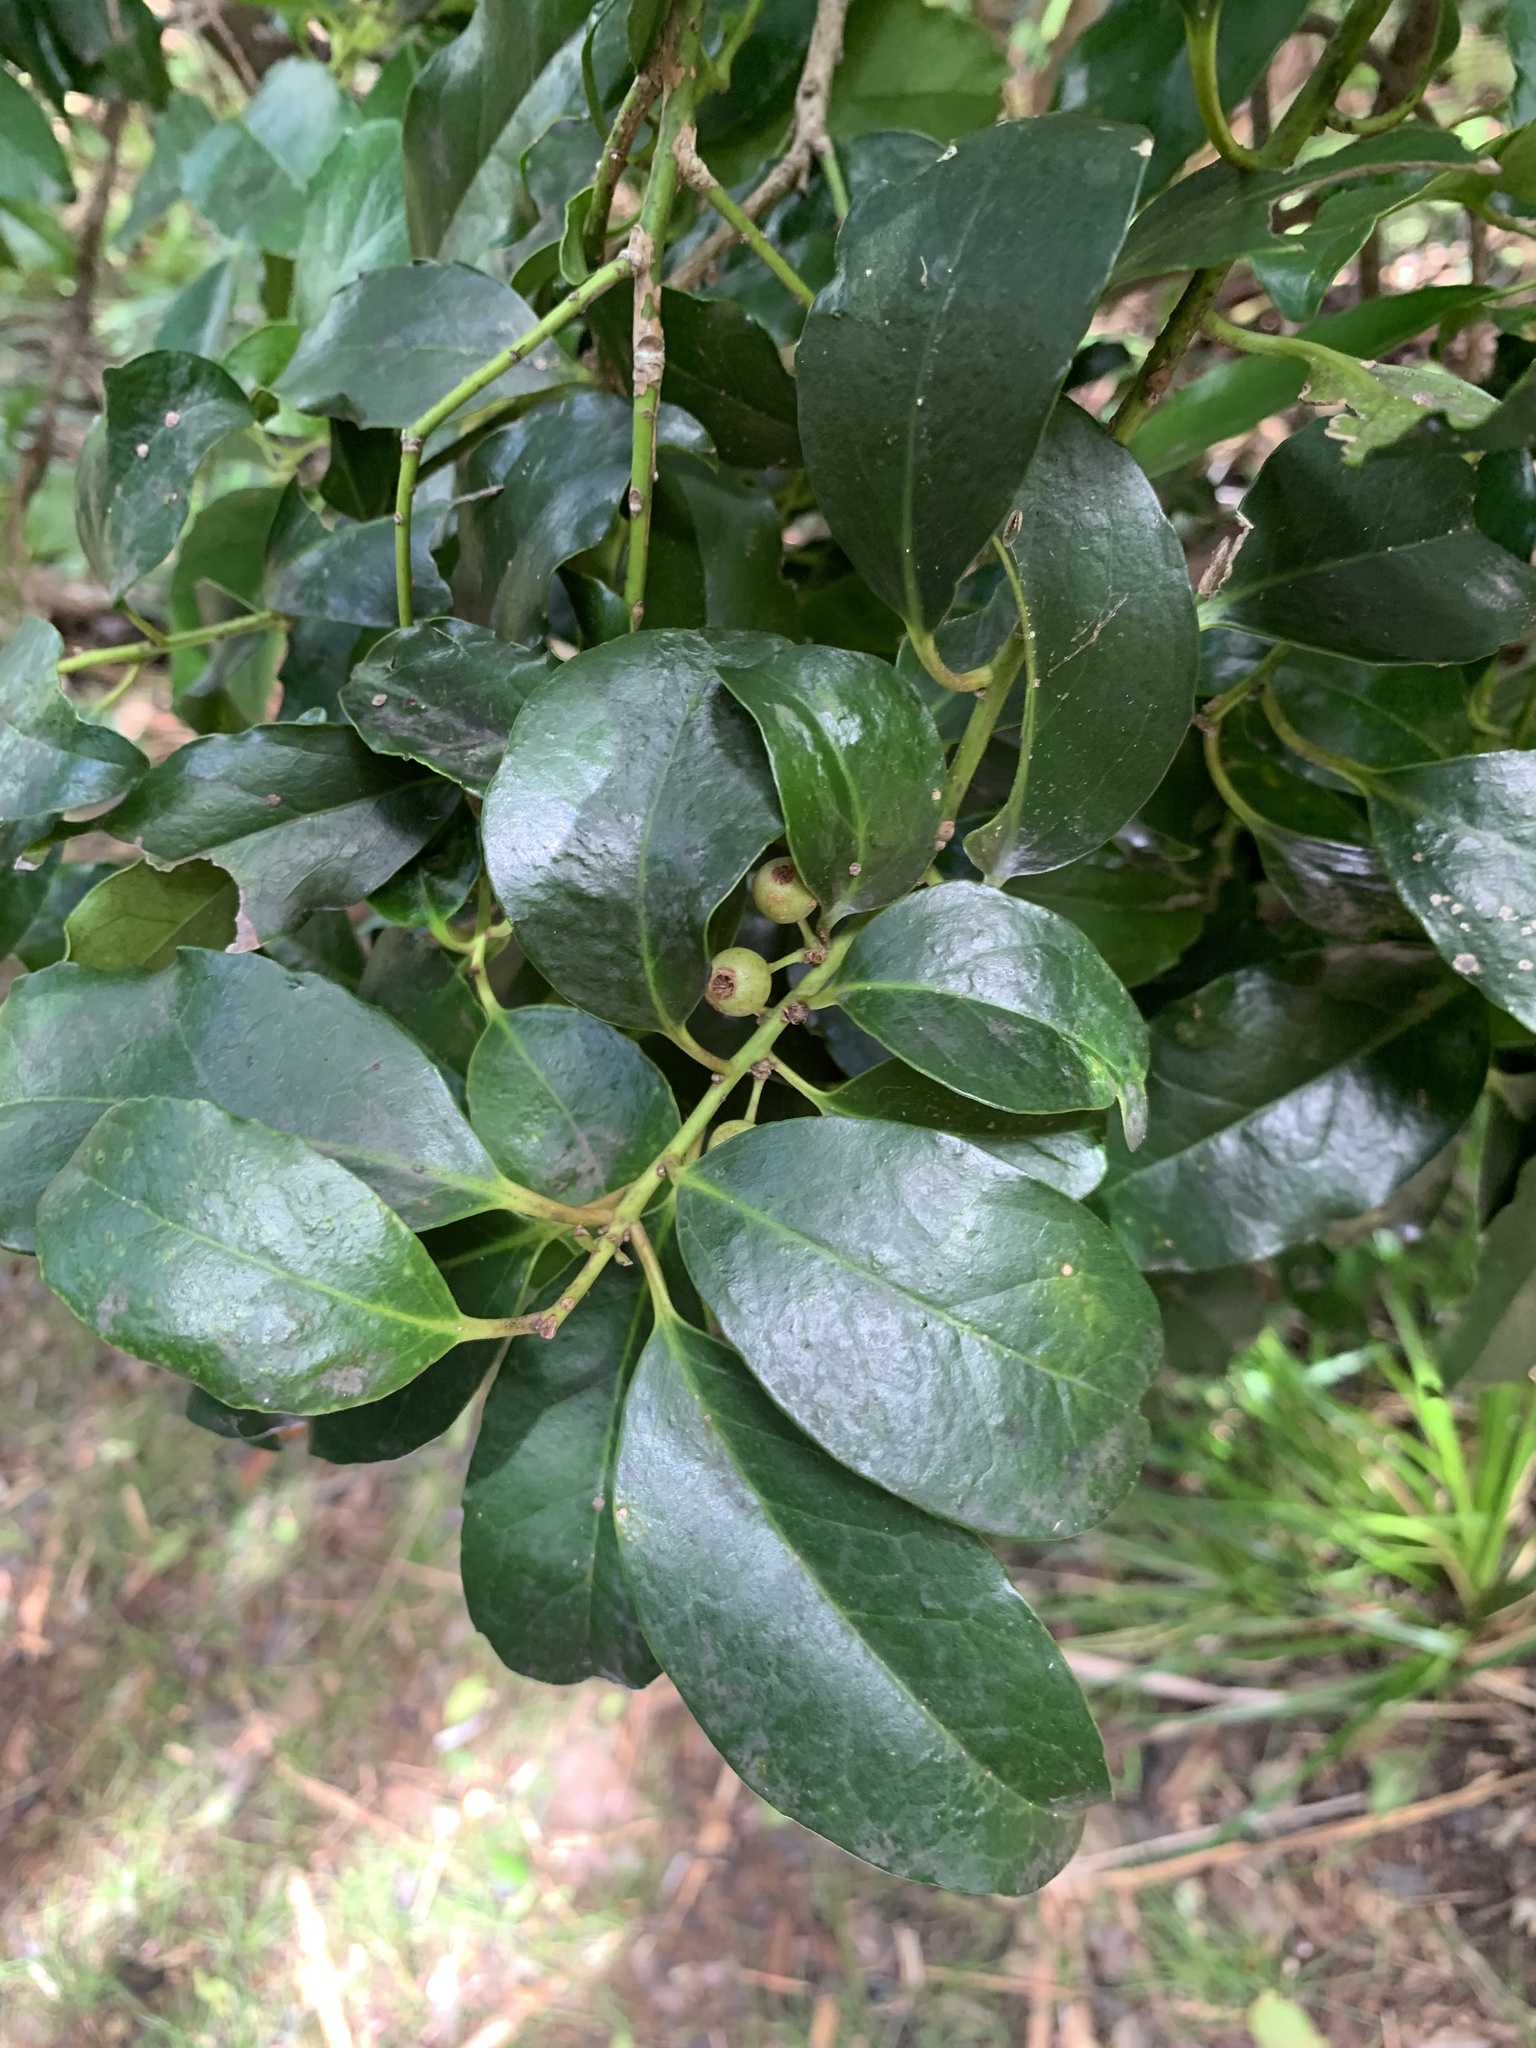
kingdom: Plantae
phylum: Tracheophyta
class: Magnoliopsida
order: Aquifoliales
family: Aquifoliaceae
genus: Ilex
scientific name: Ilex mertensii
